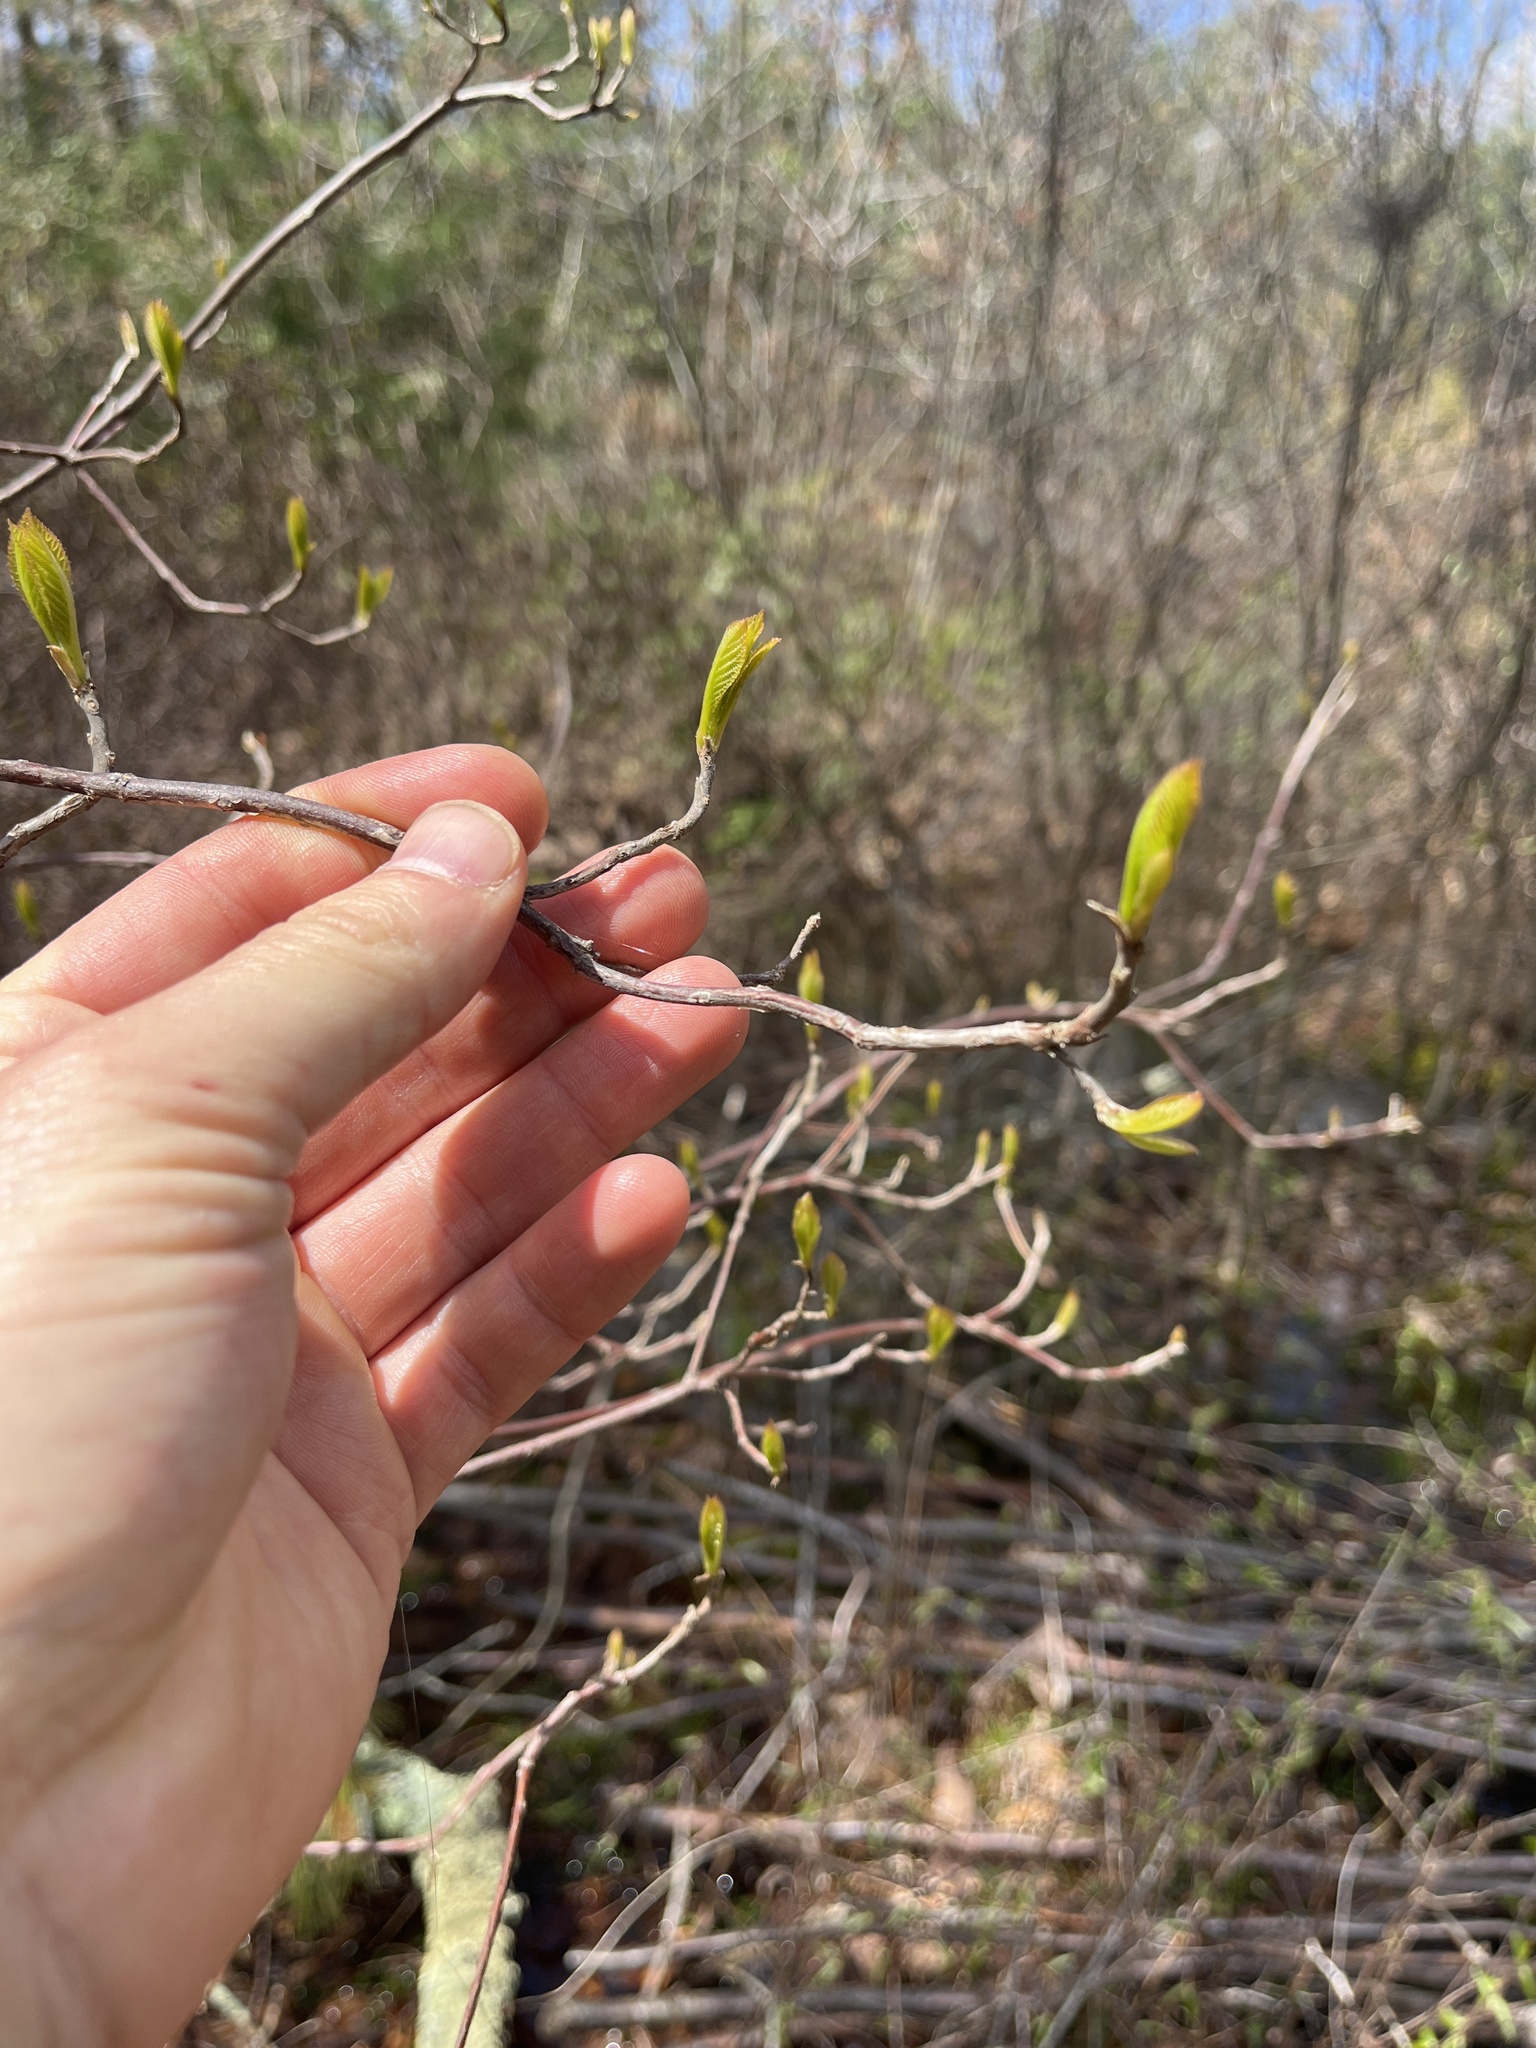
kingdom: Plantae
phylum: Tracheophyta
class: Magnoliopsida
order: Ericales
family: Clethraceae
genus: Clethra
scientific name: Clethra alnifolia
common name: Sweet pepperbush
